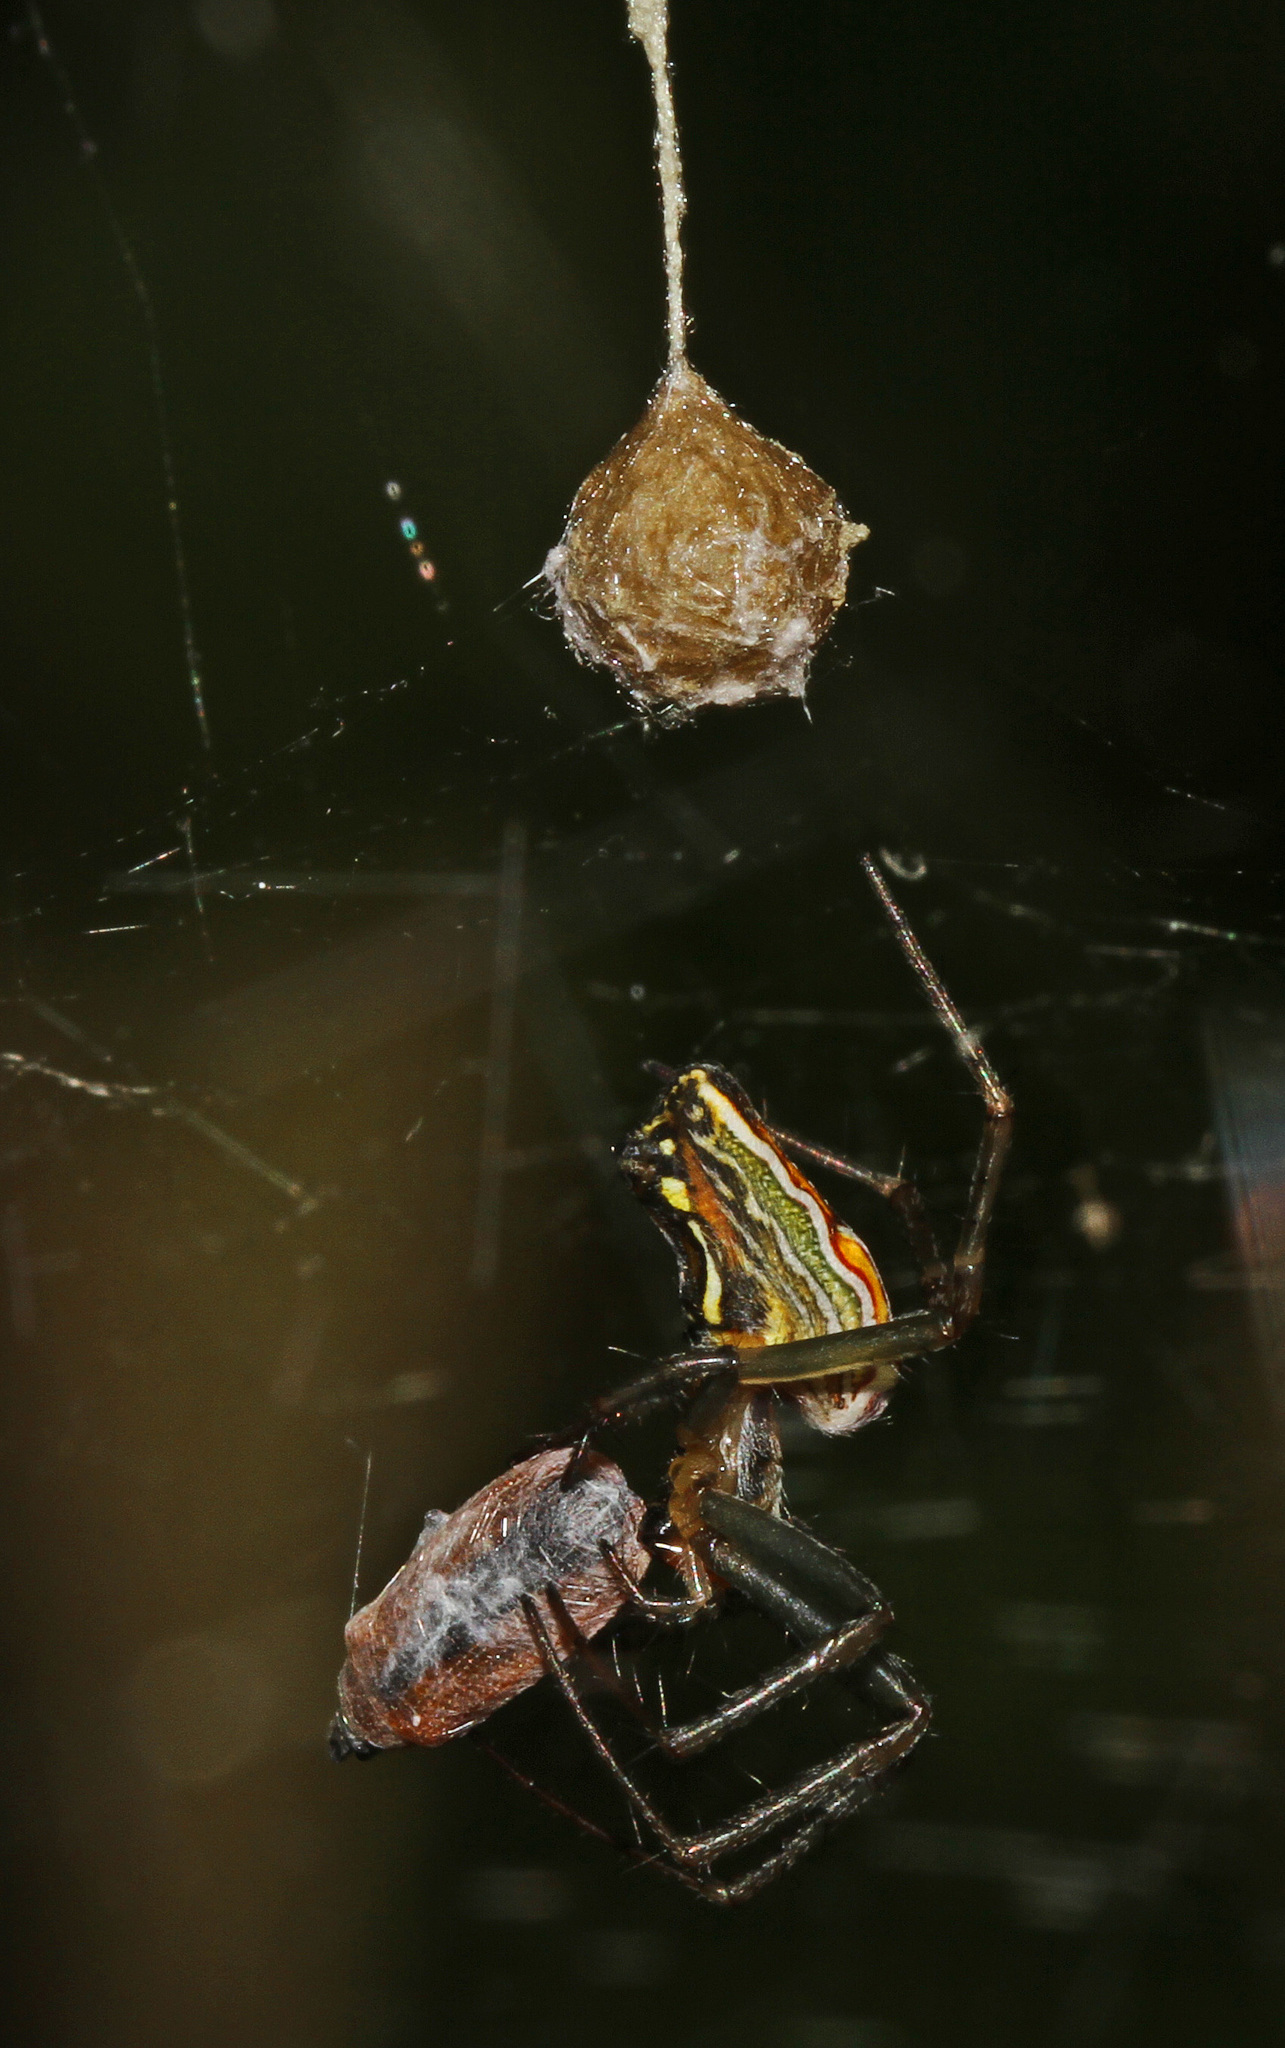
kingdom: Animalia
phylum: Arthropoda
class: Arachnida
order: Araneae
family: Araneidae
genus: Mecynogea
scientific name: Mecynogea lemniscata
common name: Orb weavers
